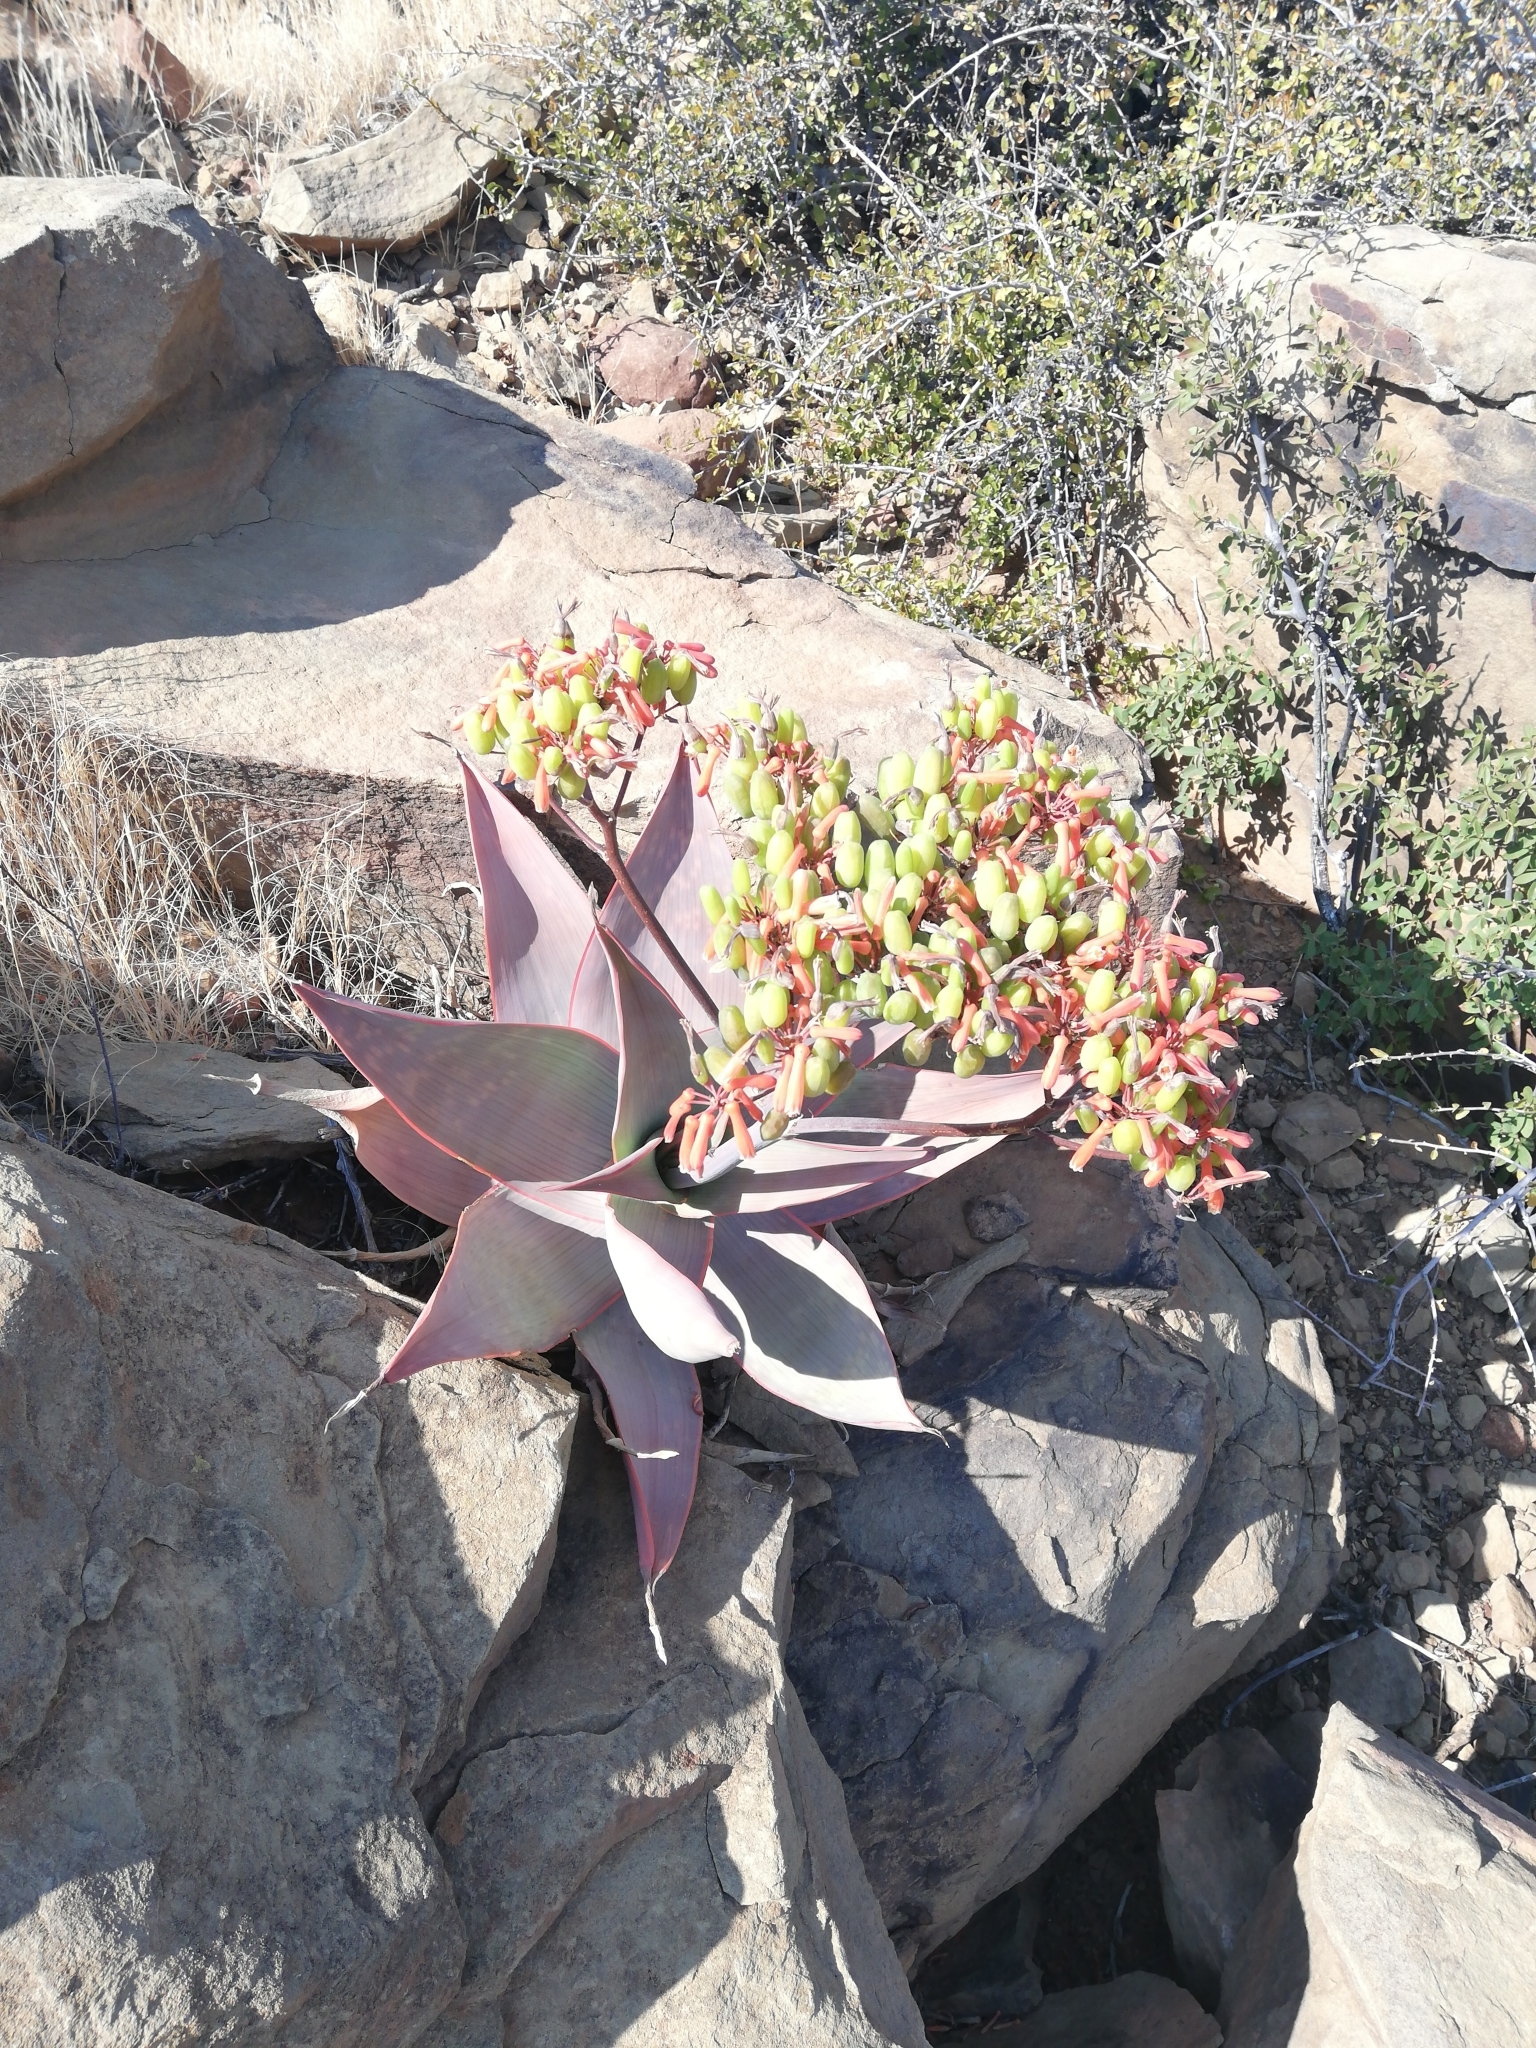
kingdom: Plantae
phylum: Tracheophyta
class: Liliopsida
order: Asparagales
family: Asphodelaceae
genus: Aloe
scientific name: Aloe striata
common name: Coral aloe
